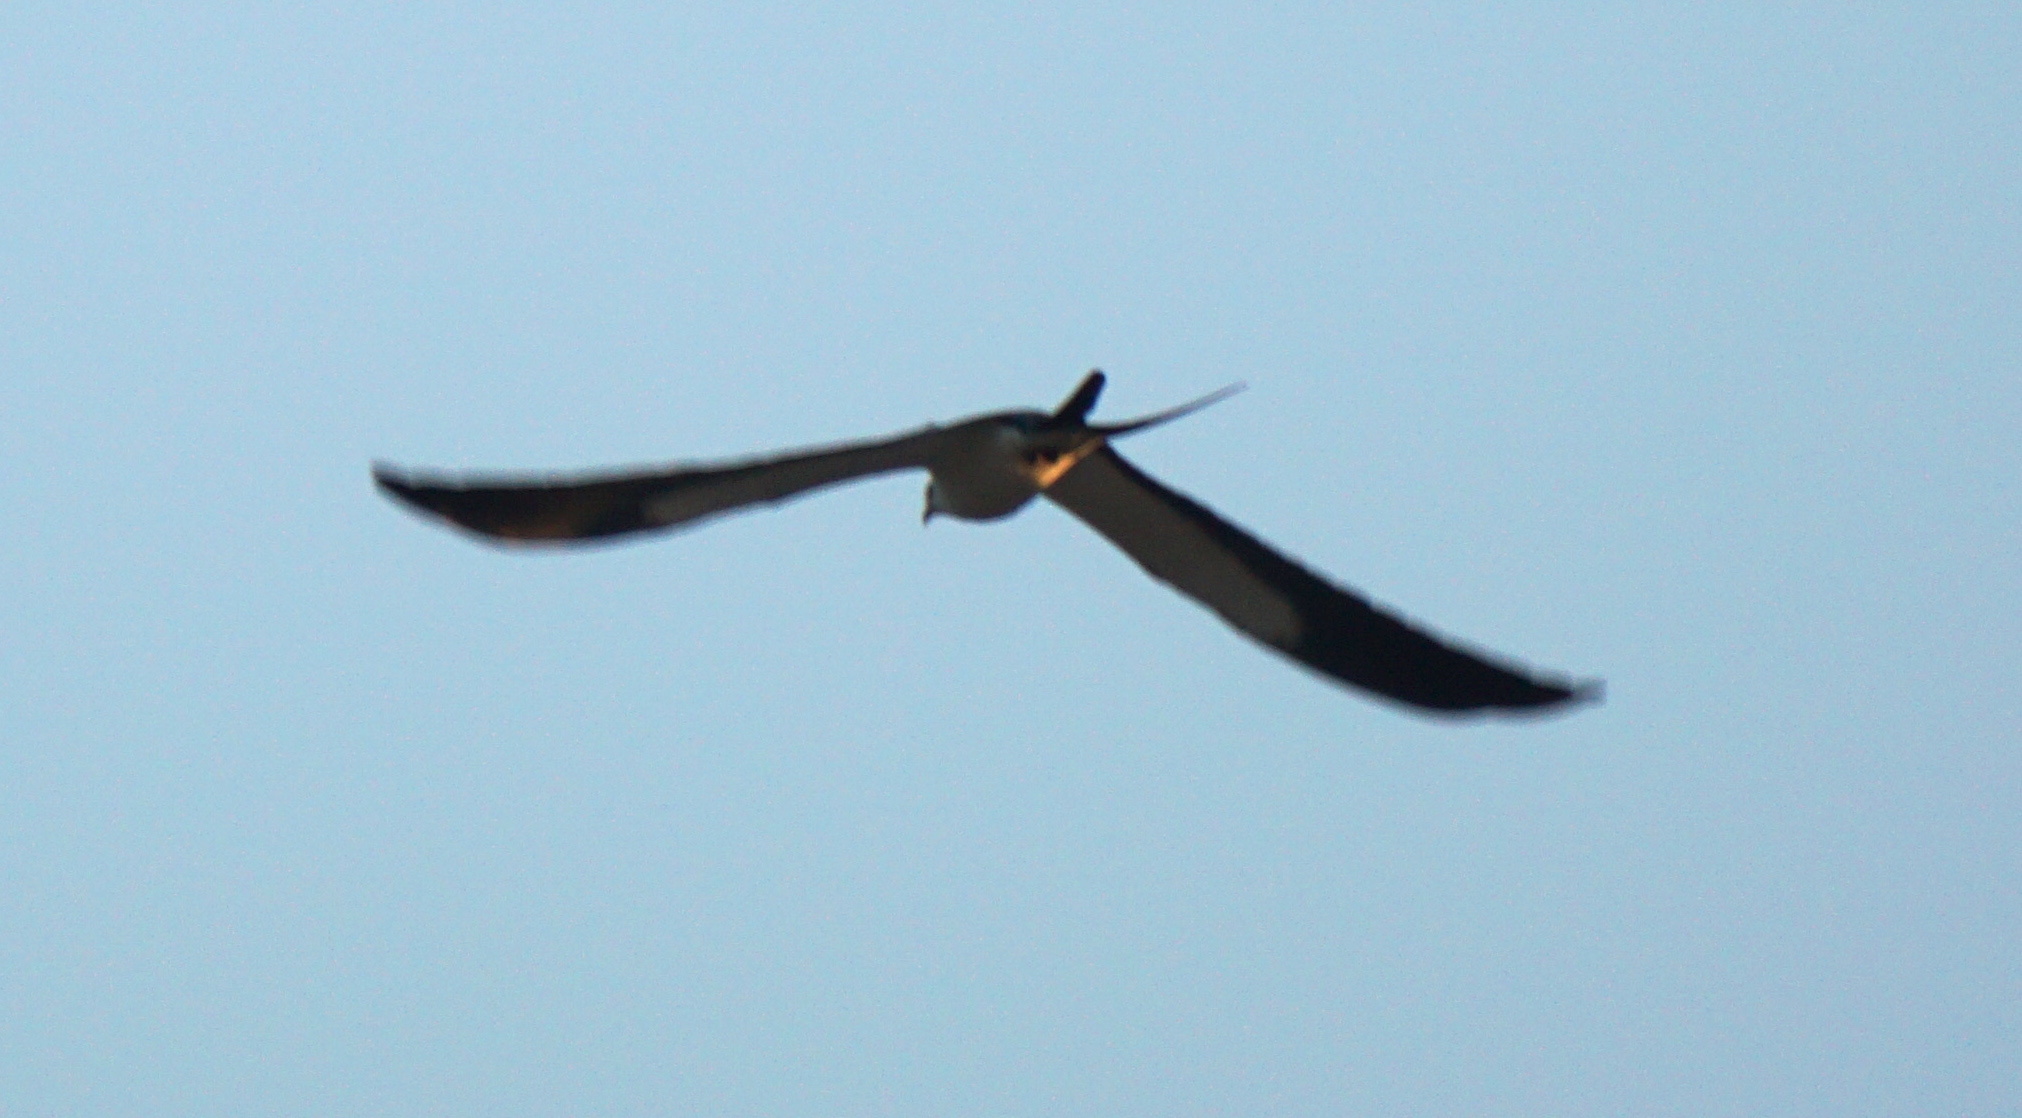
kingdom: Animalia
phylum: Chordata
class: Aves
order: Accipitriformes
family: Accipitridae
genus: Elanoides
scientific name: Elanoides forficatus
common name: Swallow-tailed kite
